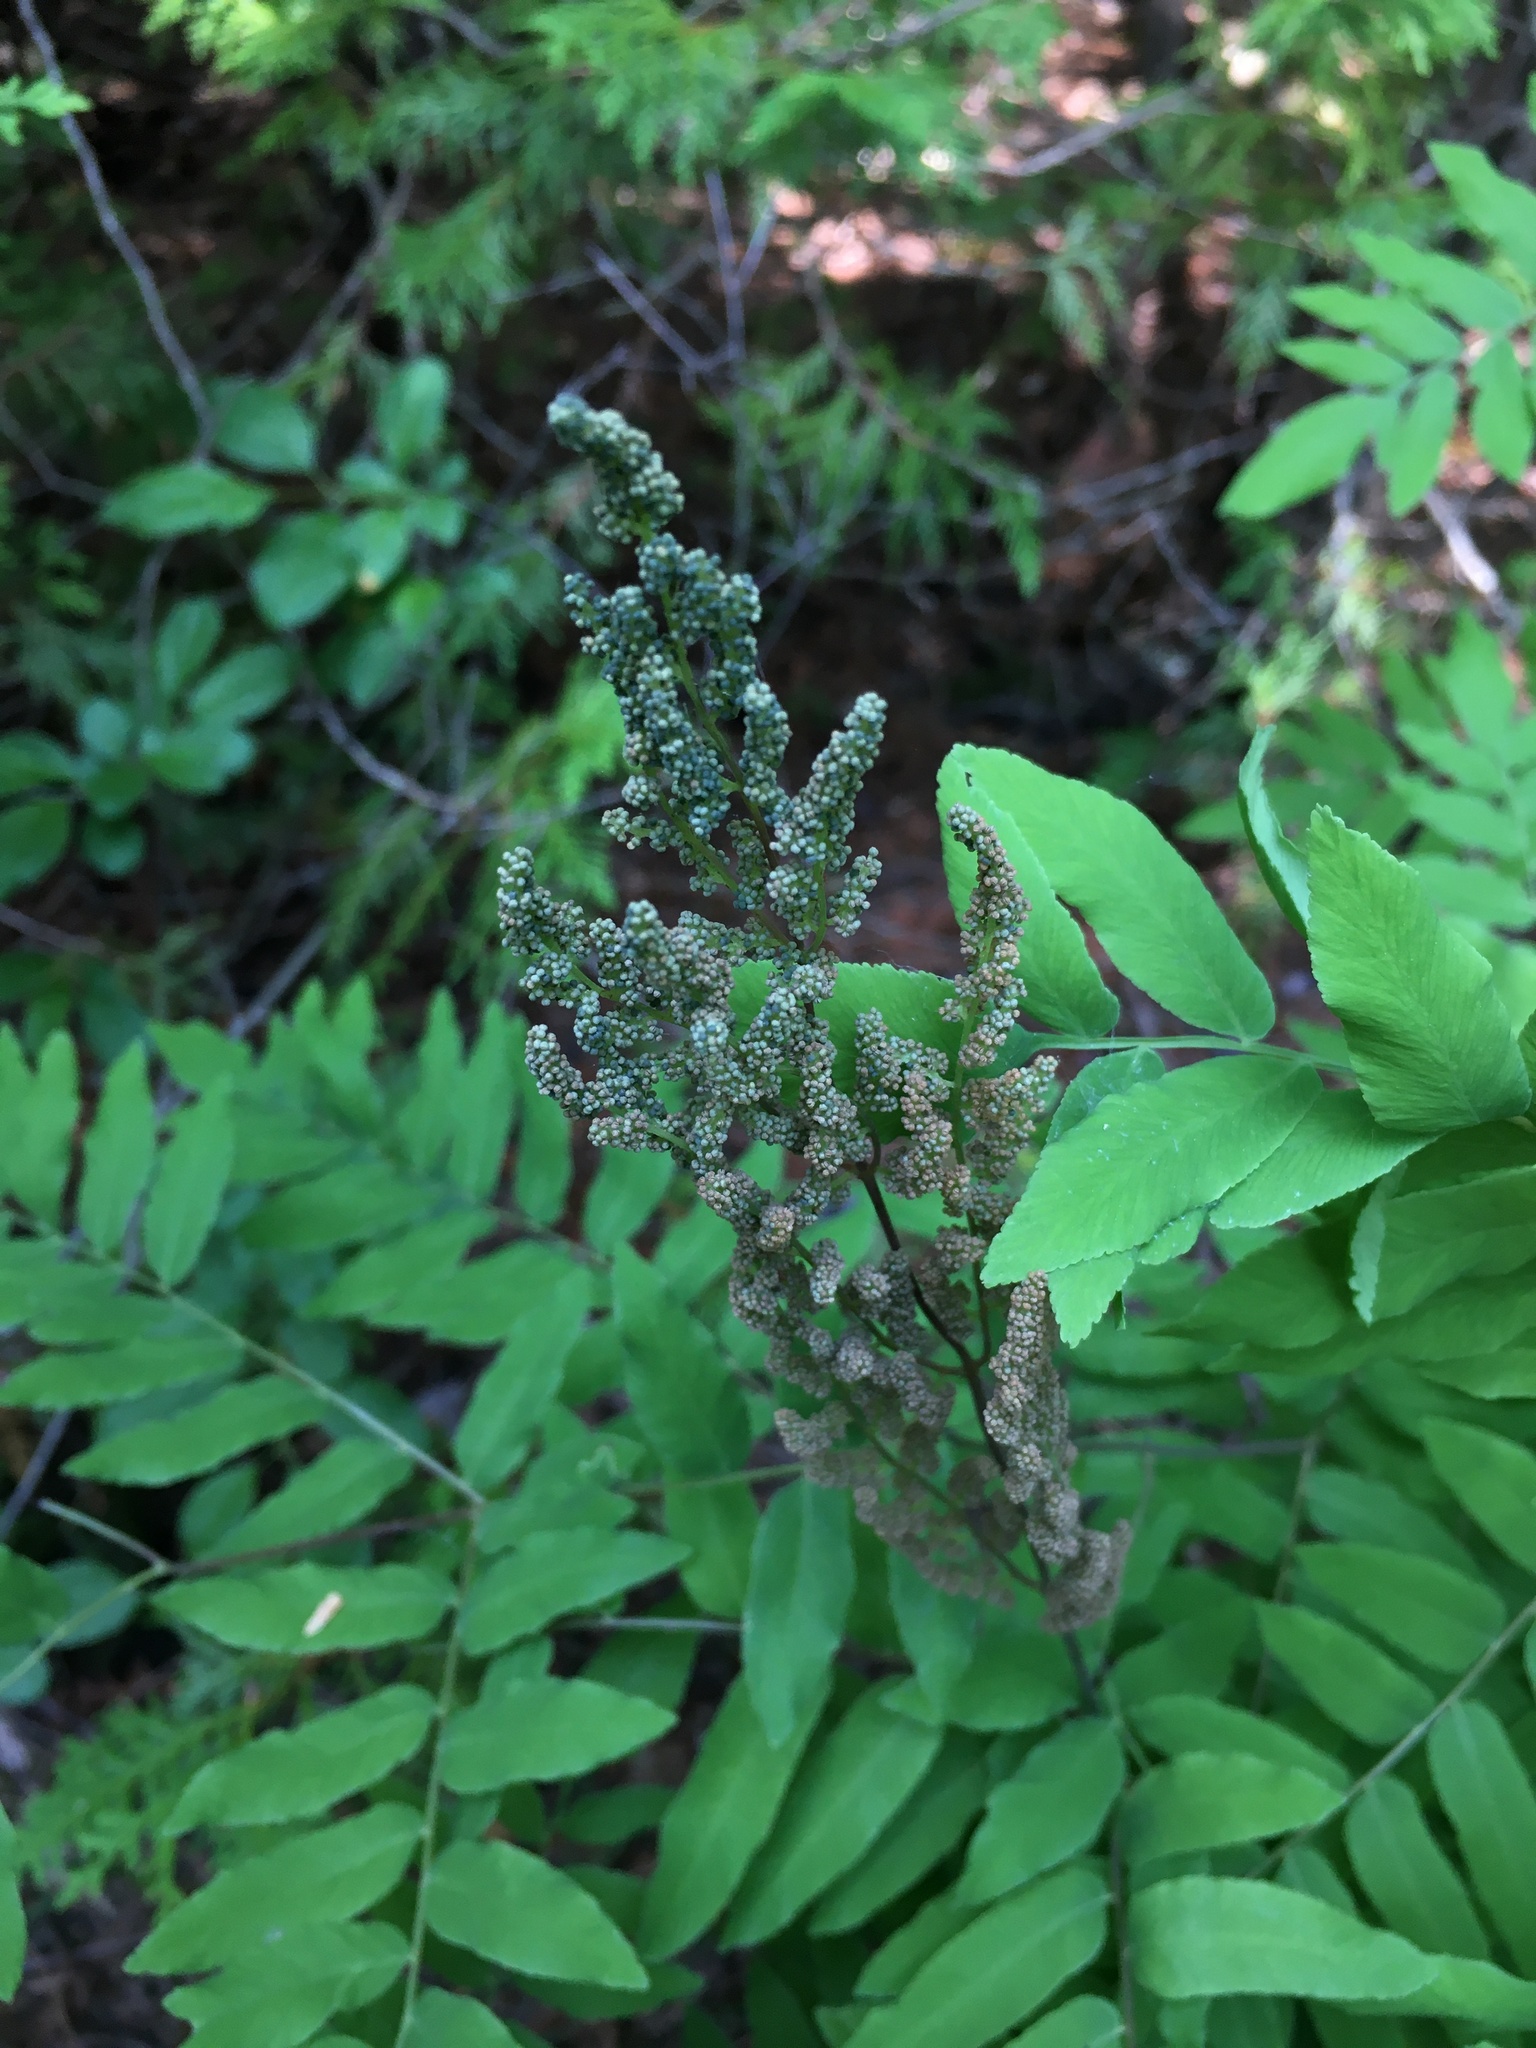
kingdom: Plantae
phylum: Tracheophyta
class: Polypodiopsida
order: Osmundales
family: Osmundaceae
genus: Osmunda
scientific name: Osmunda spectabilis
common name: American royal fern
